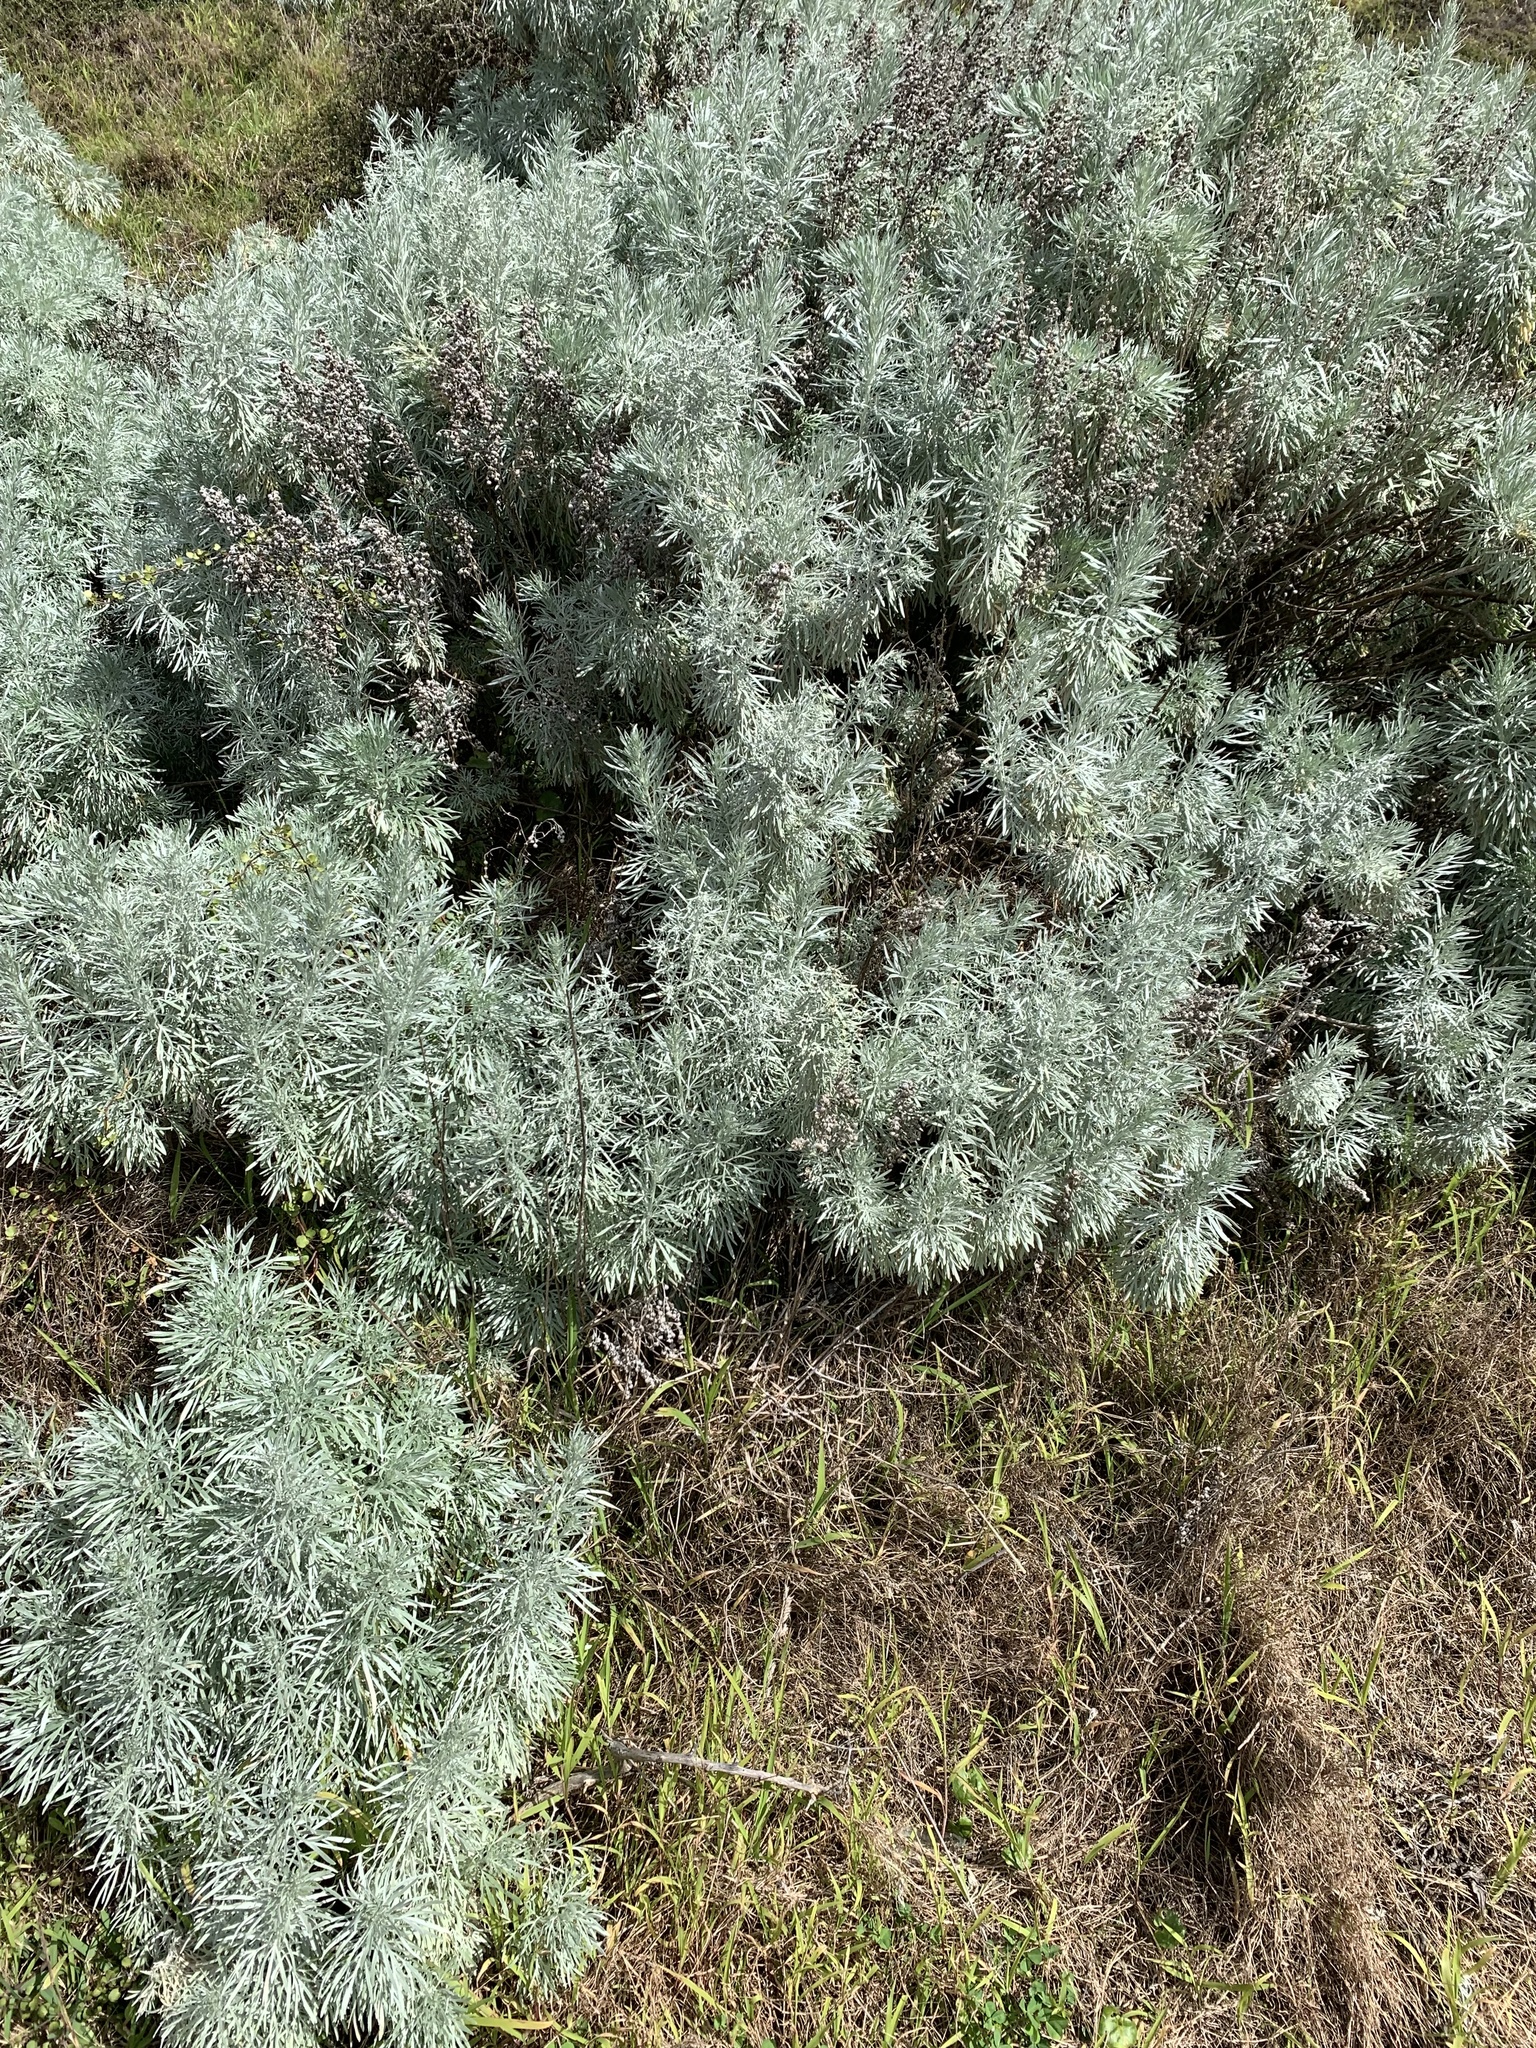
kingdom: Plantae
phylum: Tracheophyta
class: Magnoliopsida
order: Asterales
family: Asteraceae
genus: Artemisia
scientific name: Artemisia arborescens
